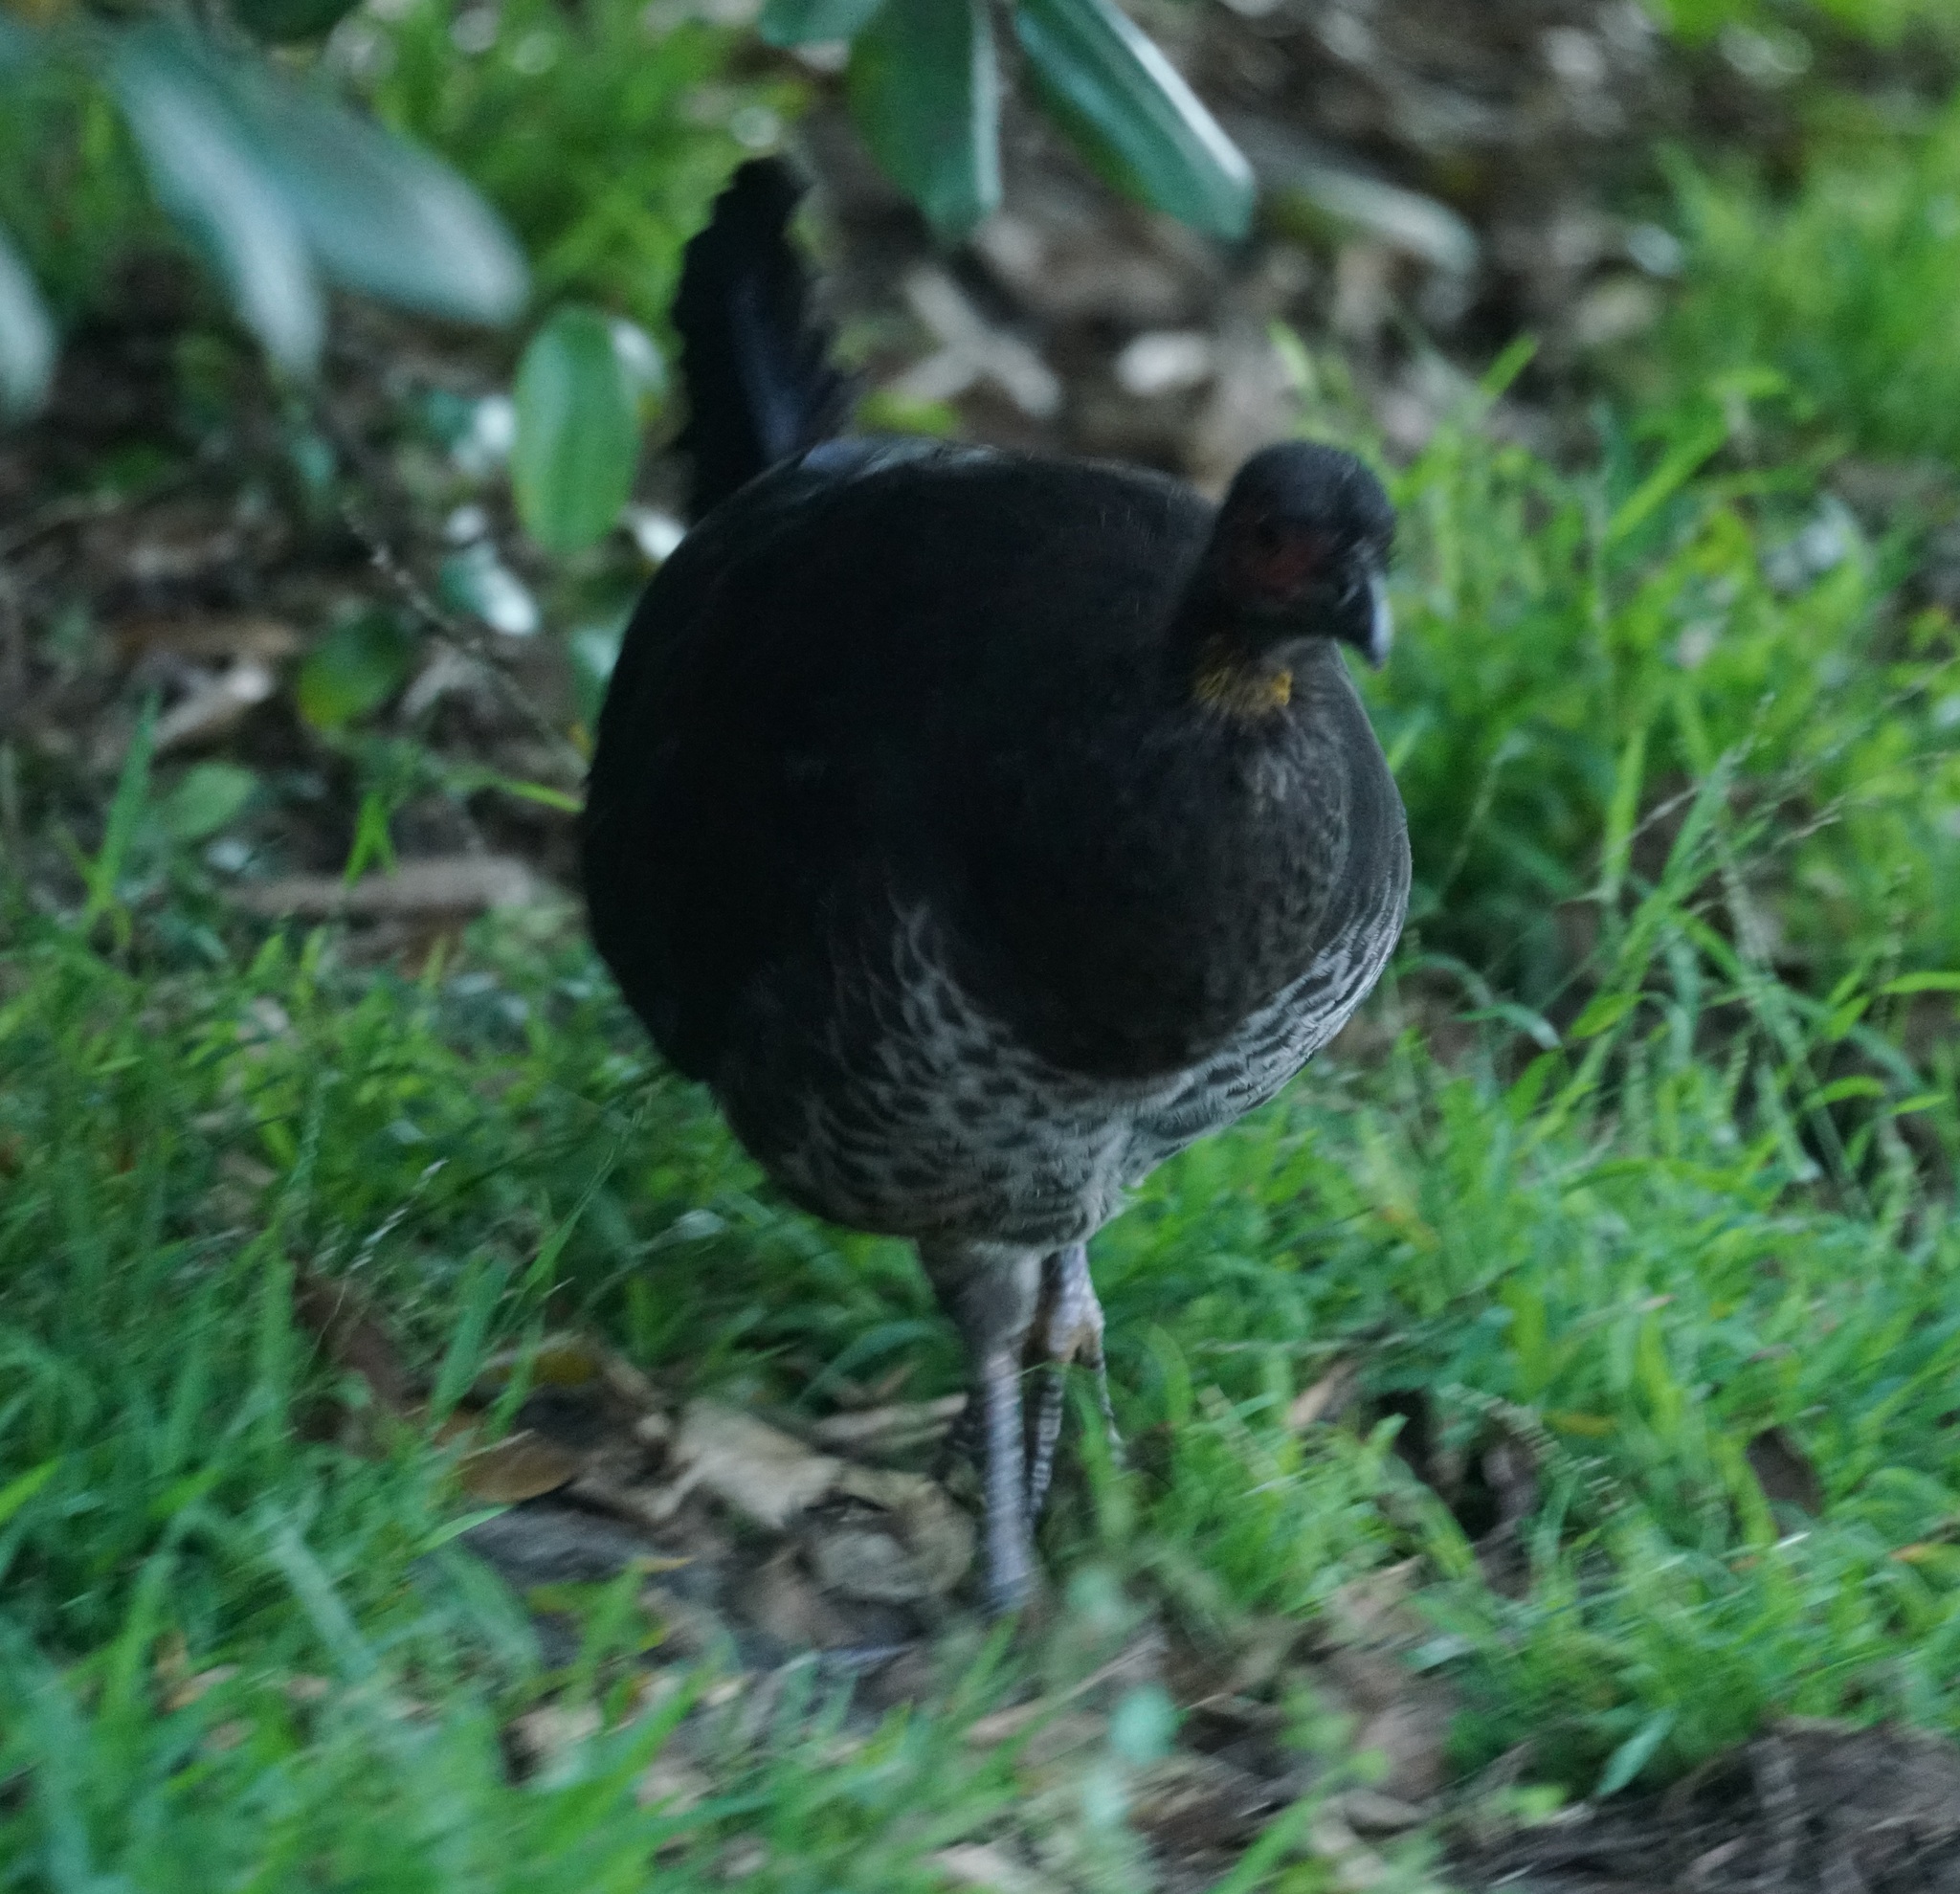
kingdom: Animalia
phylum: Chordata
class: Aves
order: Galliformes
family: Megapodiidae
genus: Alectura
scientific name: Alectura lathami
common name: Australian brushturkey
